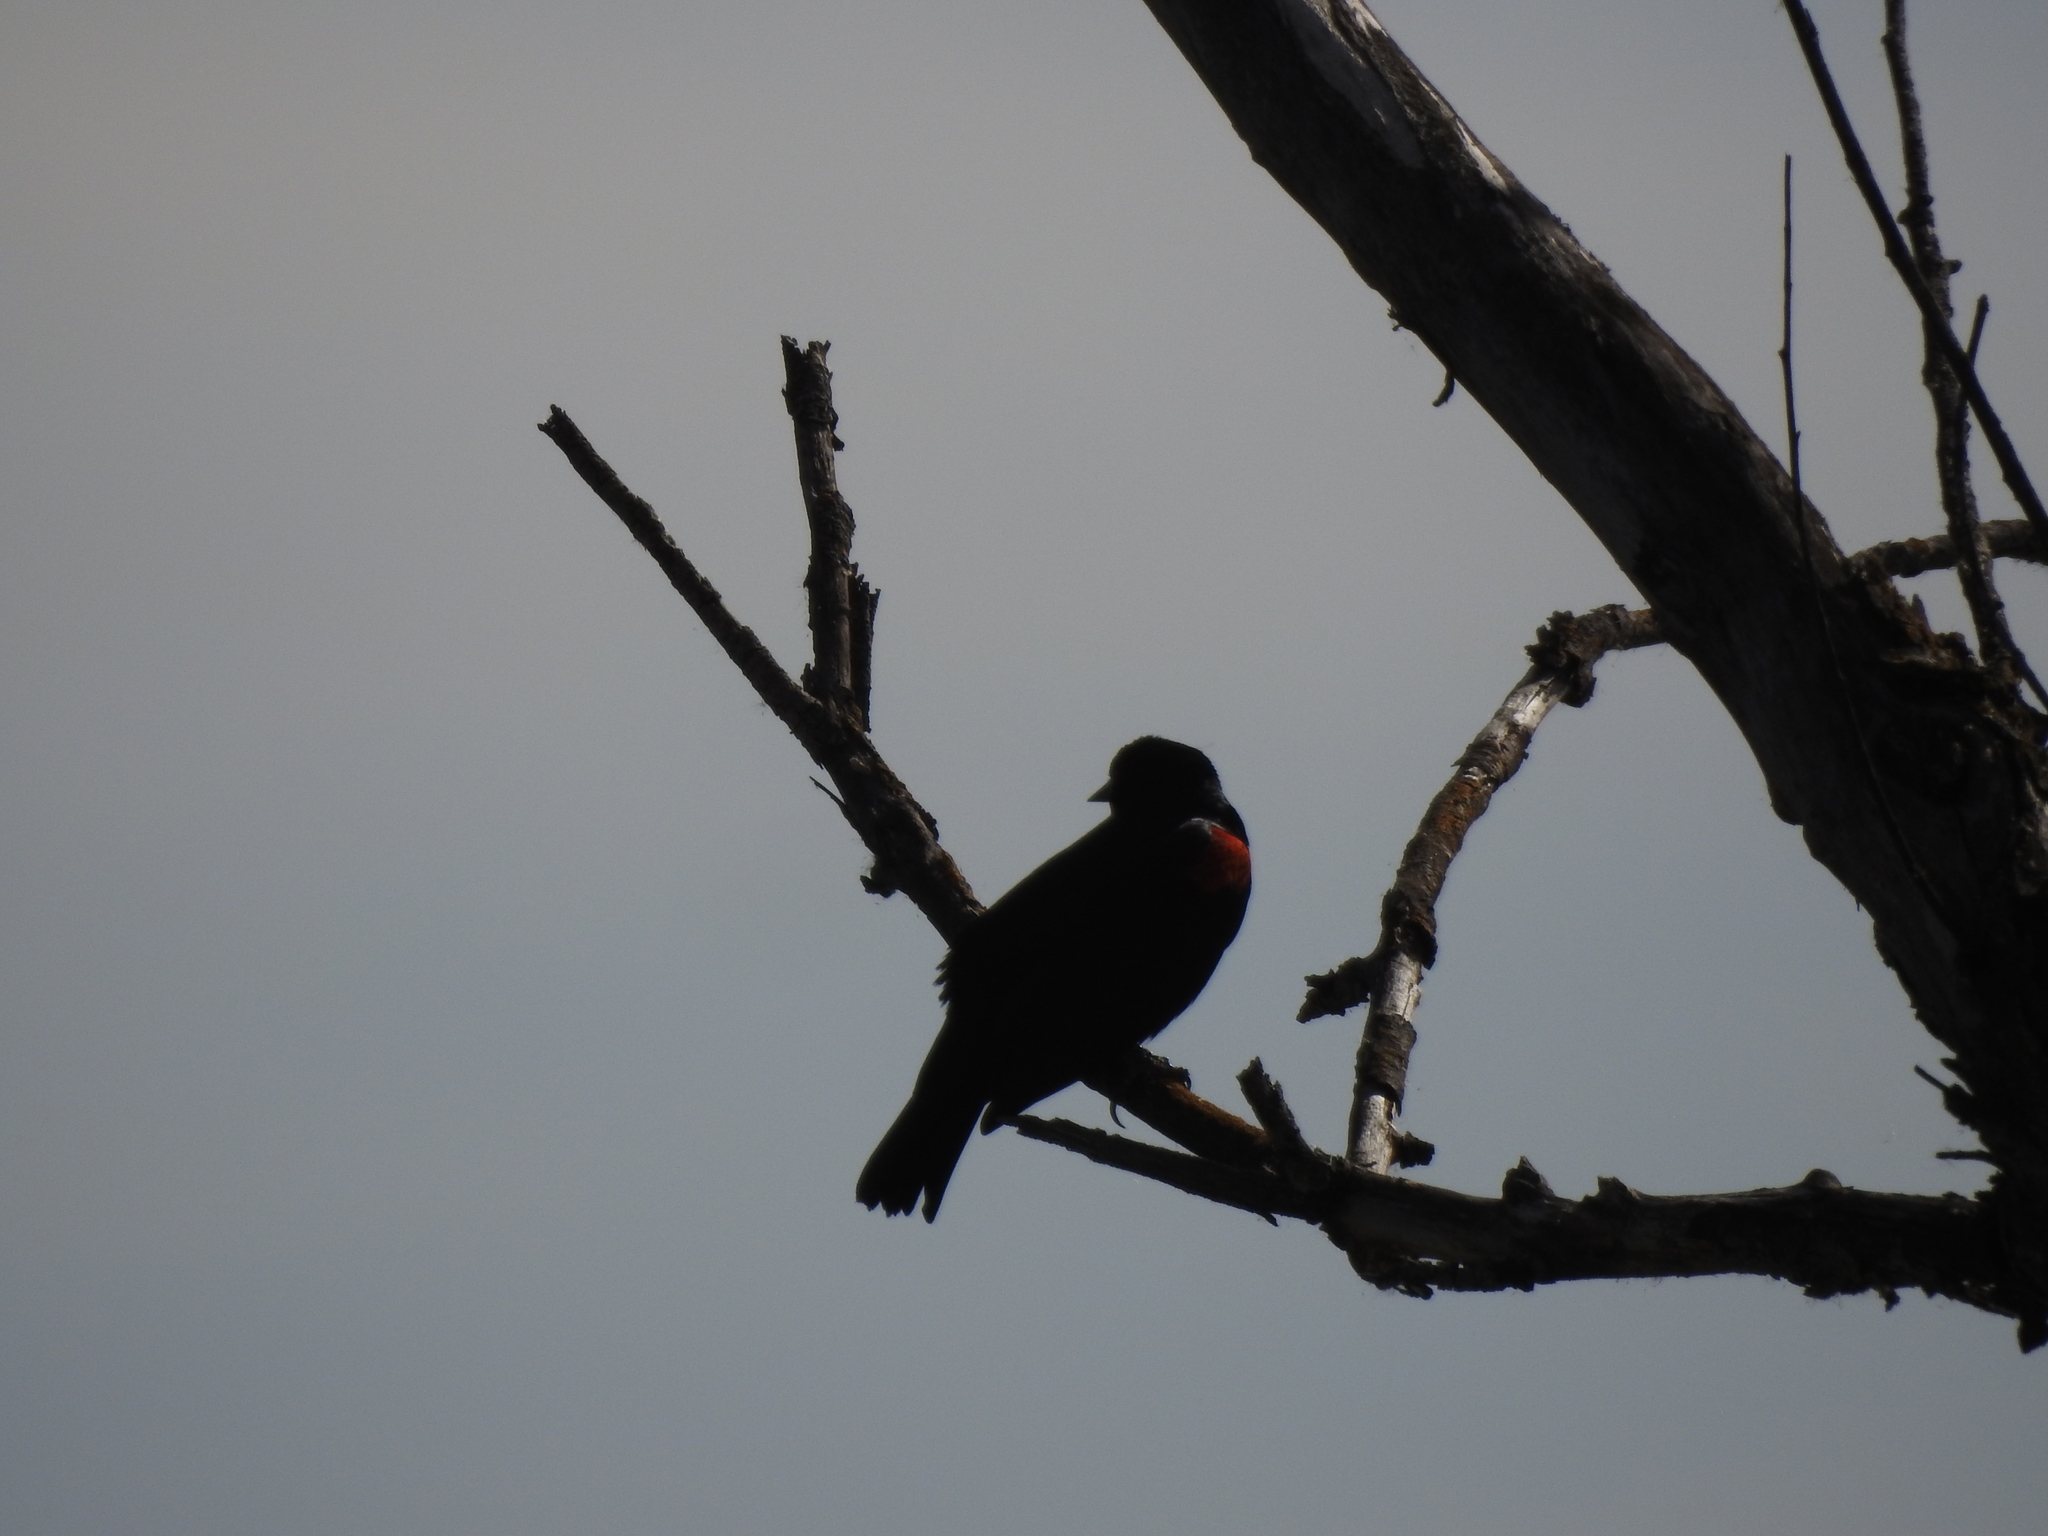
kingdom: Animalia
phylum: Chordata
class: Aves
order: Passeriformes
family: Icteridae
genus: Agelaius
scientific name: Agelaius phoeniceus
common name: Red-winged blackbird
